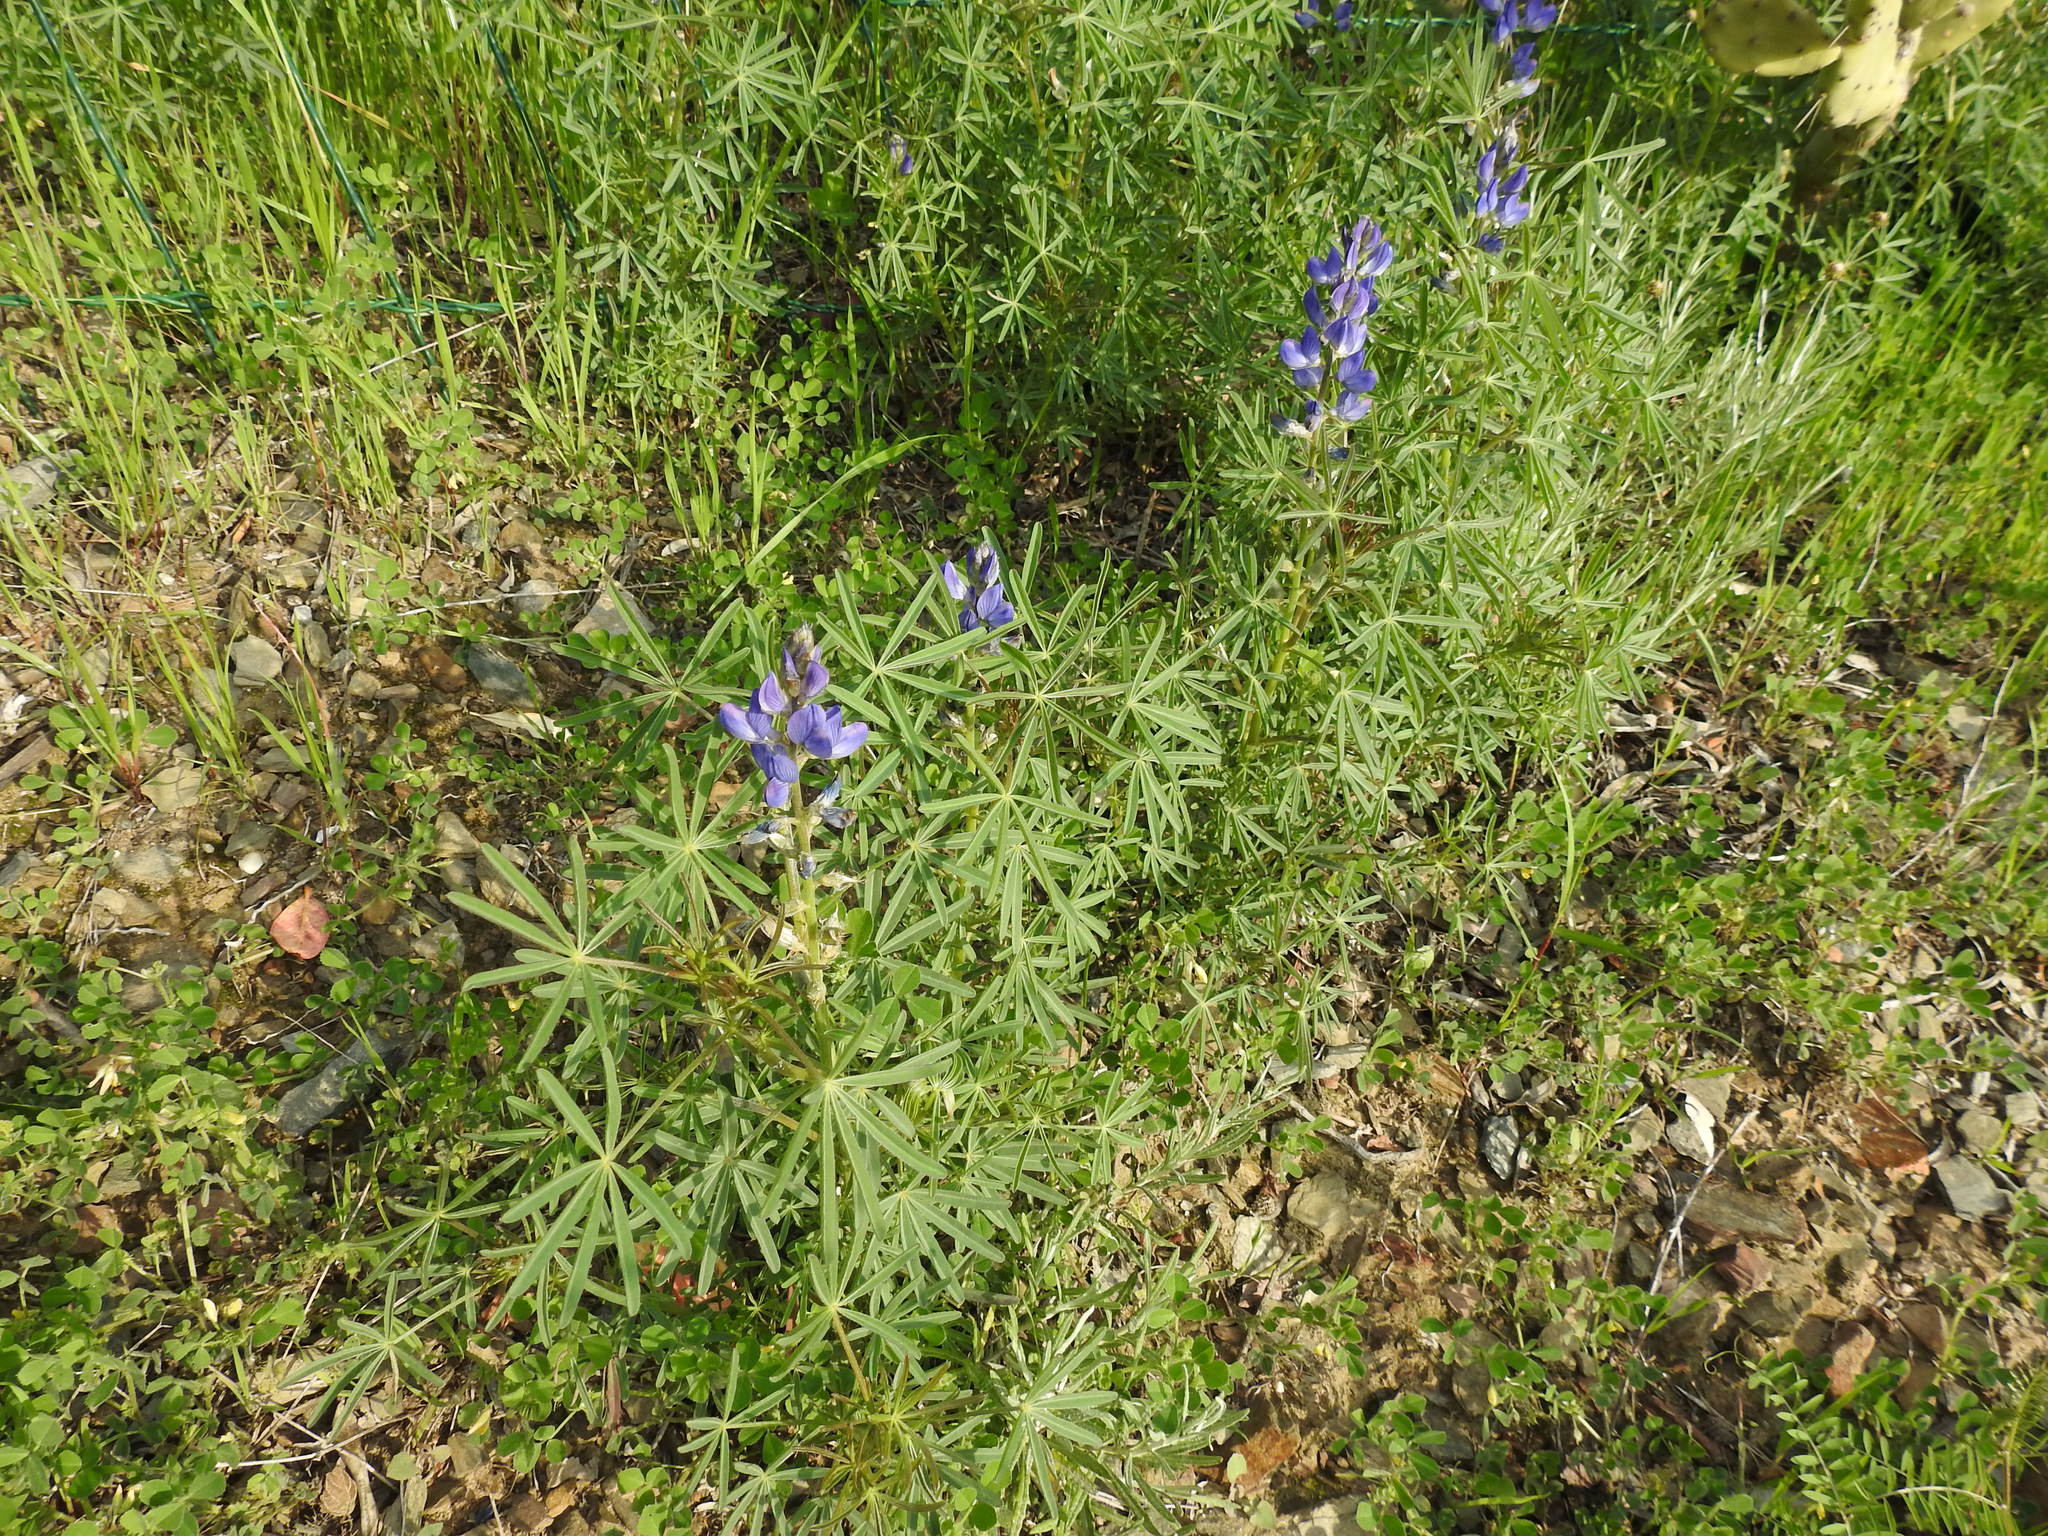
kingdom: Plantae
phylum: Tracheophyta
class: Magnoliopsida
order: Fabales
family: Fabaceae
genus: Lupinus
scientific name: Lupinus angustifolius
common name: Narrow-leaved lupin
